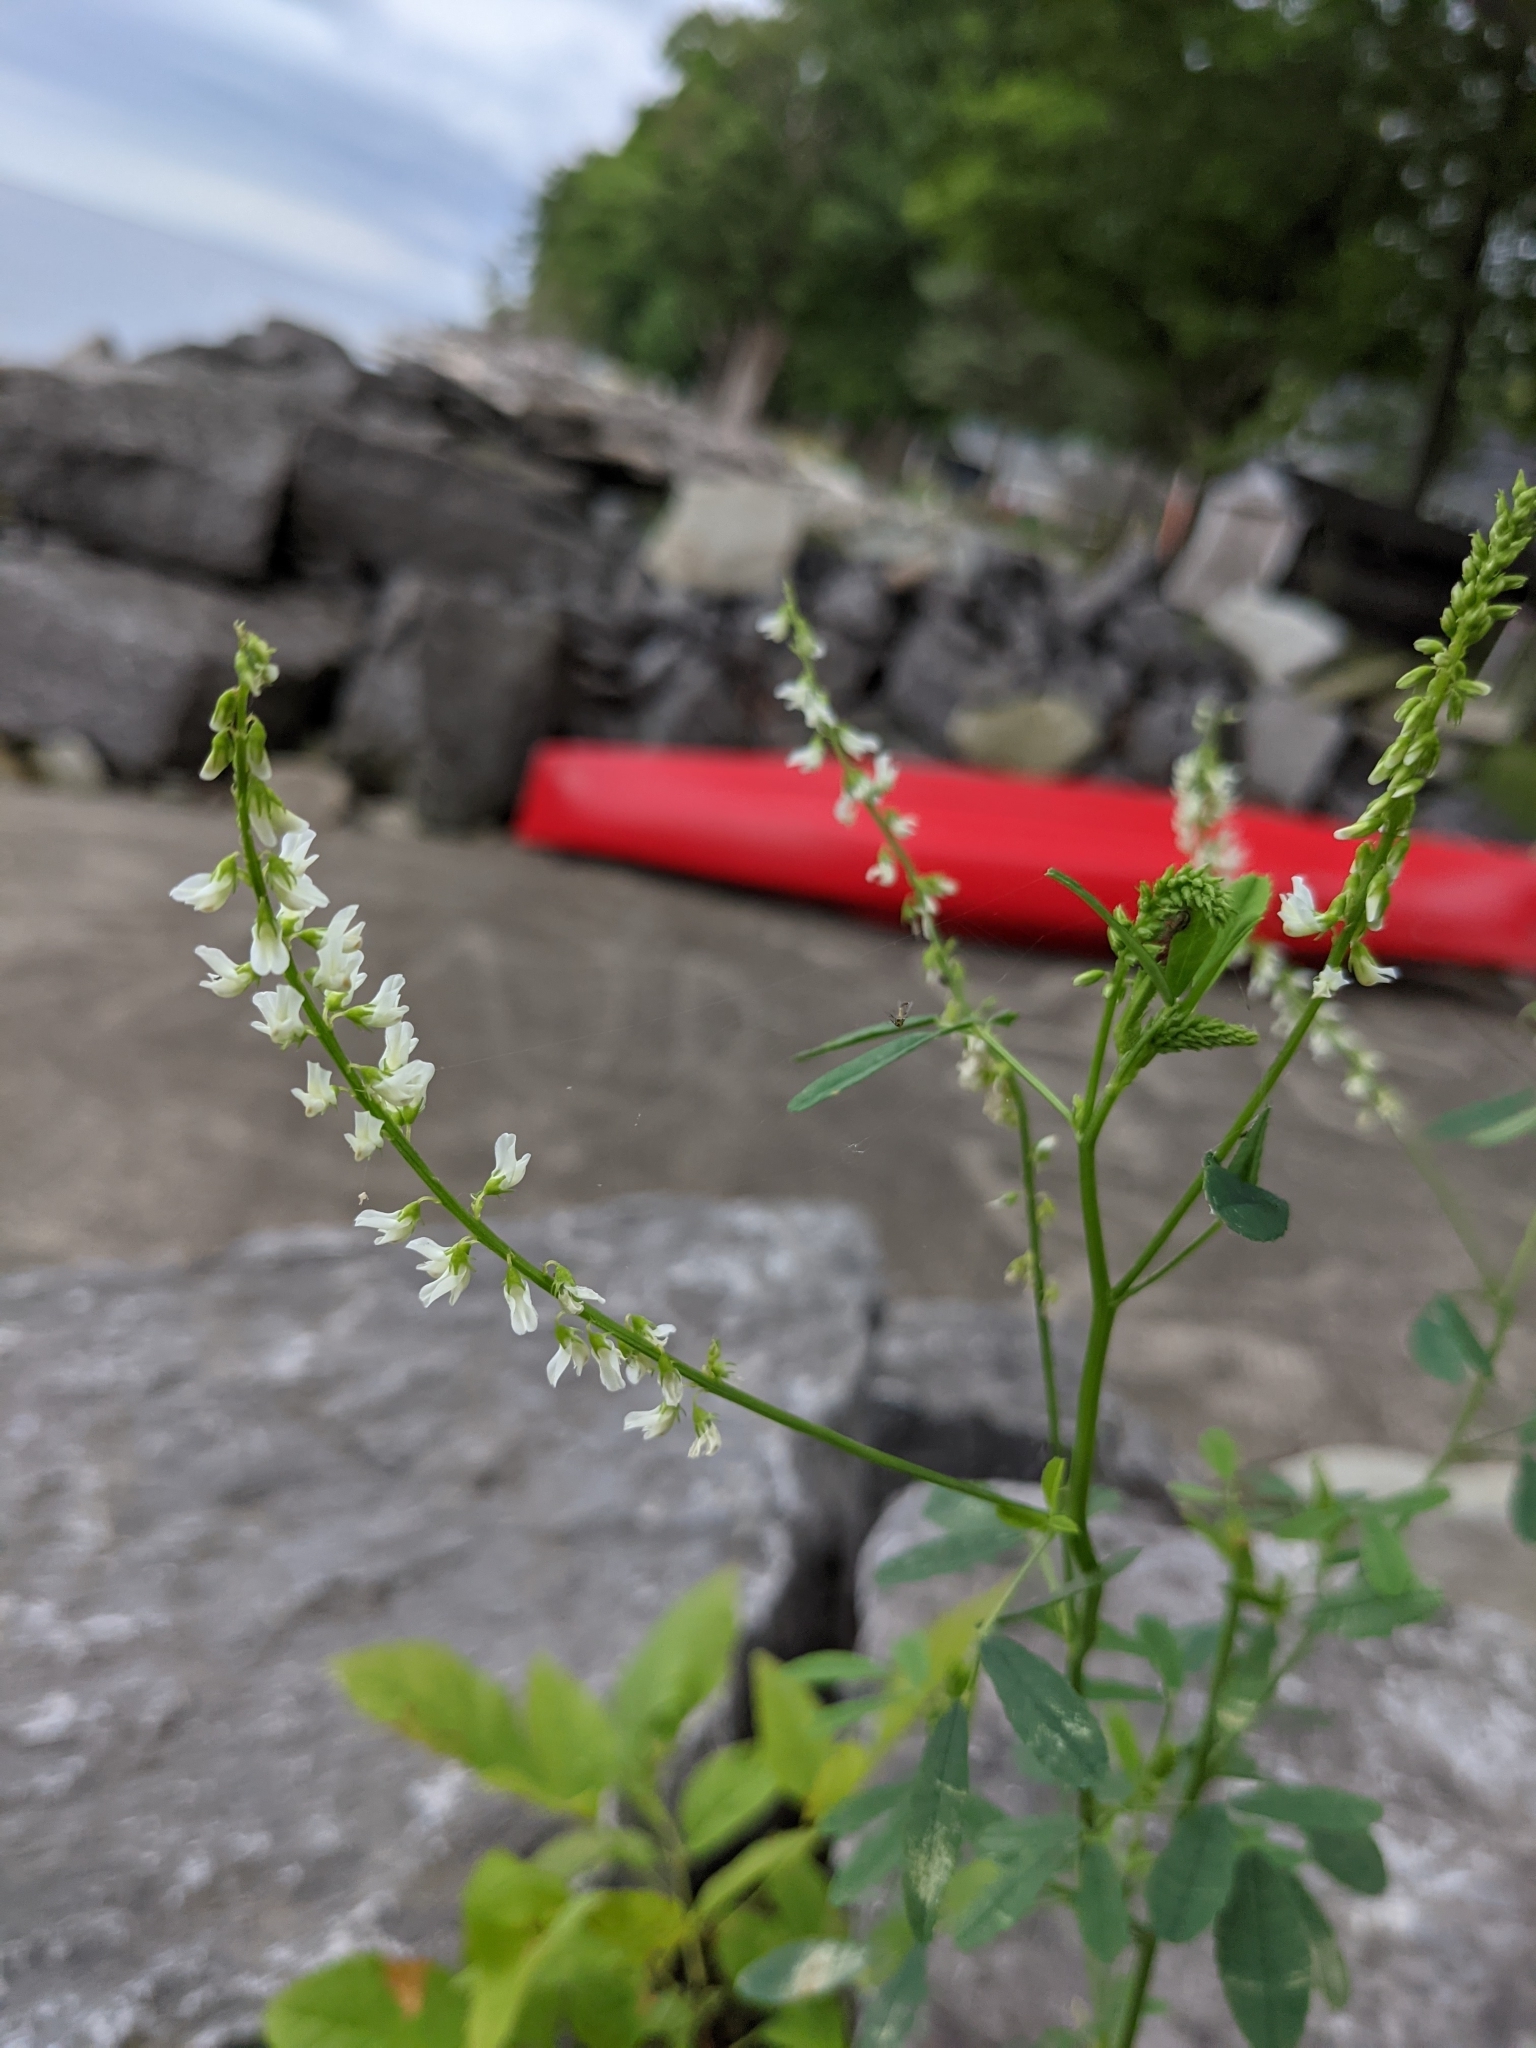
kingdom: Plantae
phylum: Tracheophyta
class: Magnoliopsida
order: Fabales
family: Fabaceae
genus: Melilotus
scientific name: Melilotus albus
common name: White melilot
